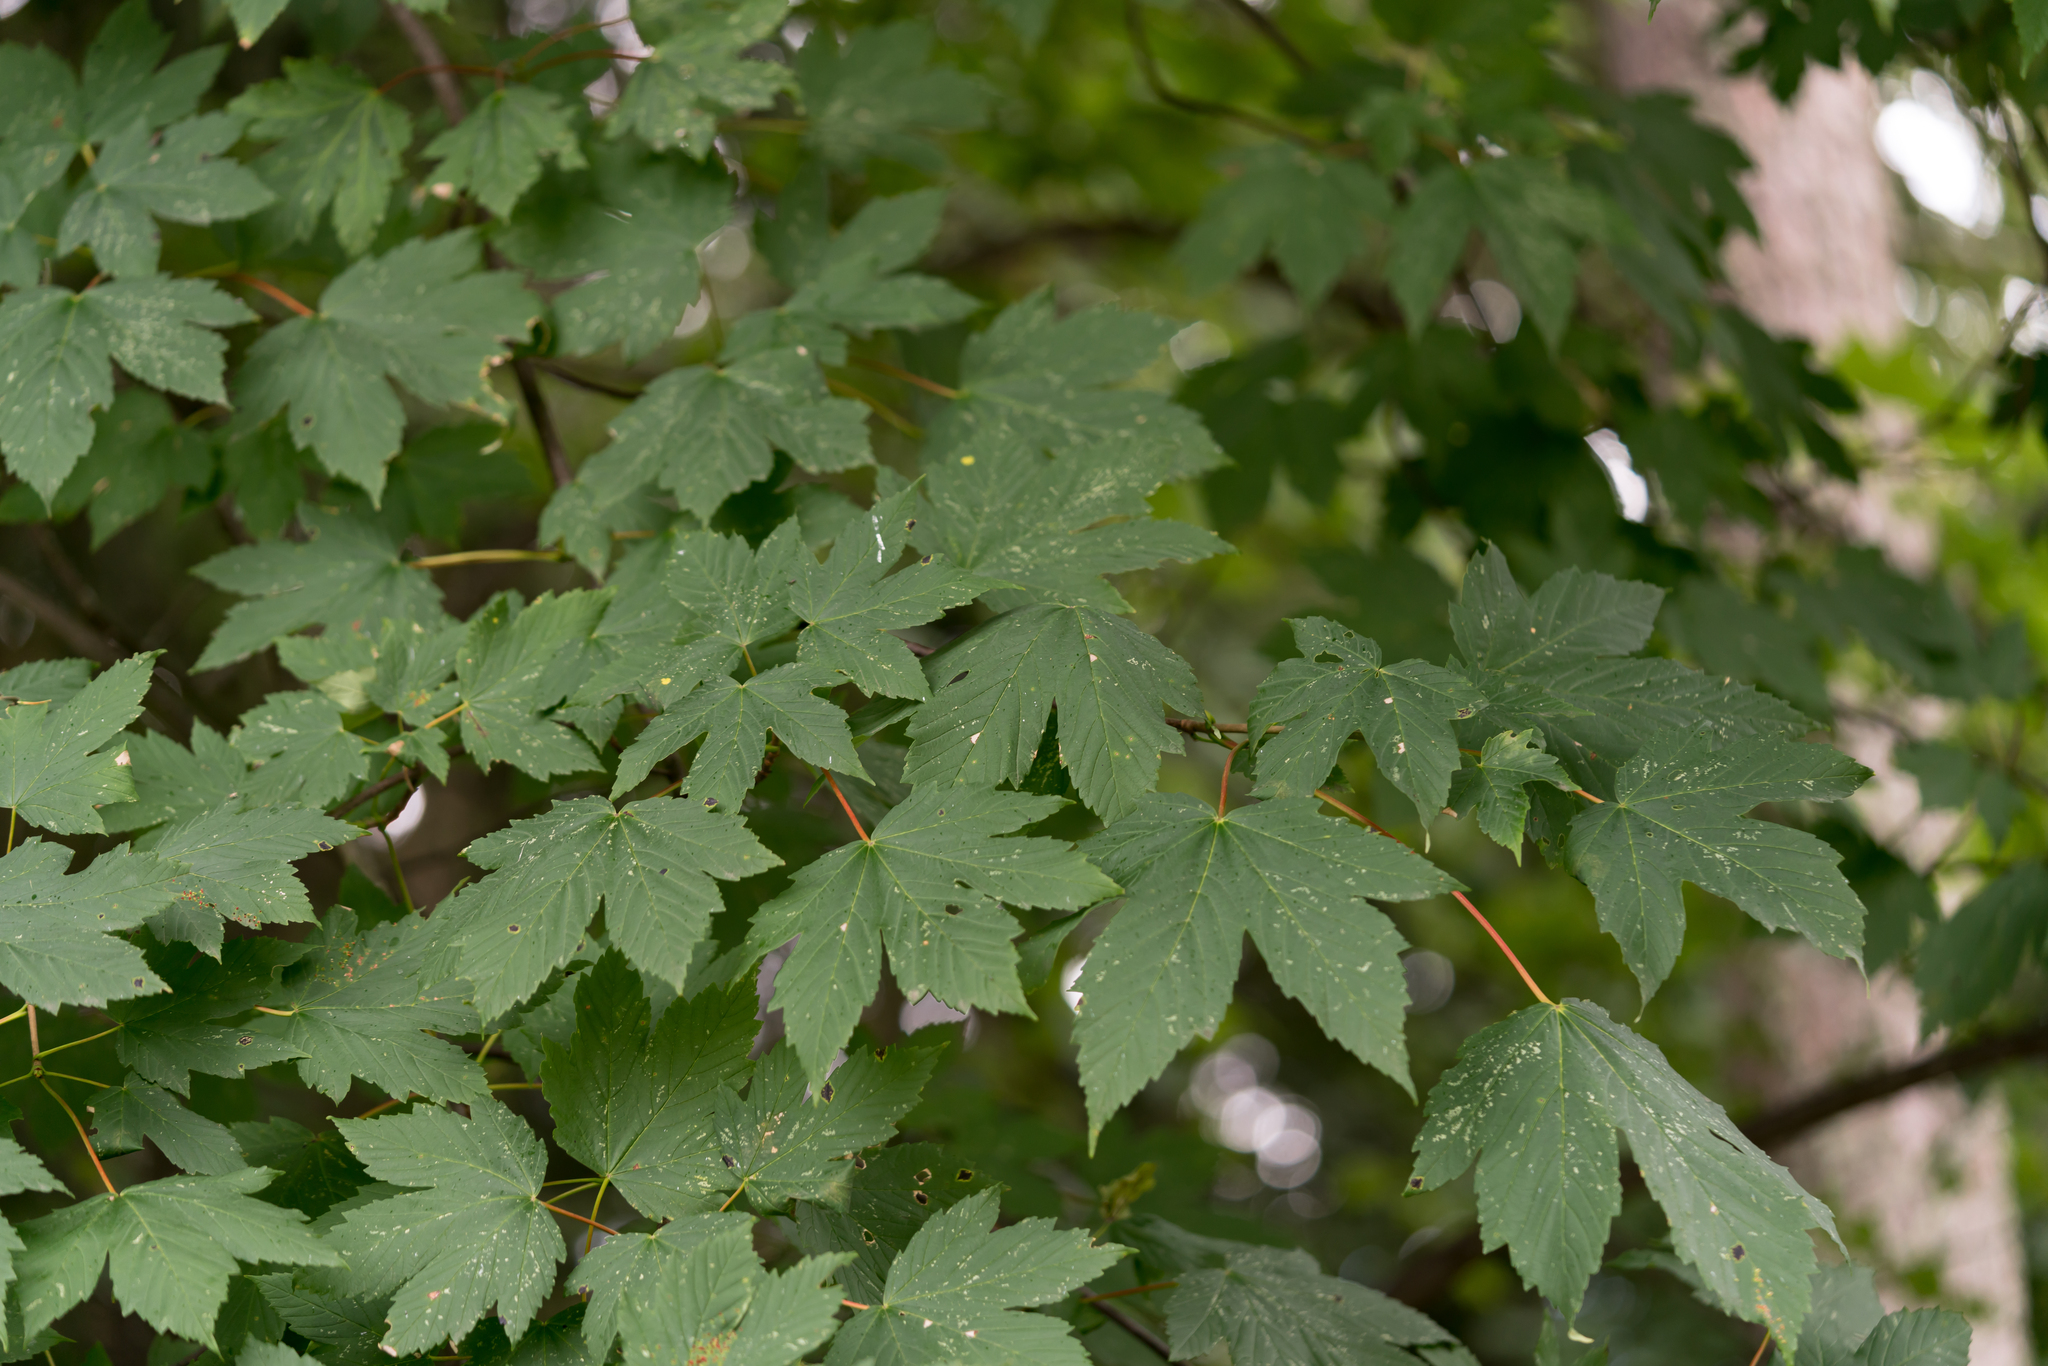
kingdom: Plantae
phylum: Tracheophyta
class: Magnoliopsida
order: Sapindales
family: Sapindaceae
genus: Acer
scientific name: Acer pseudoplatanus
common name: Sycamore
